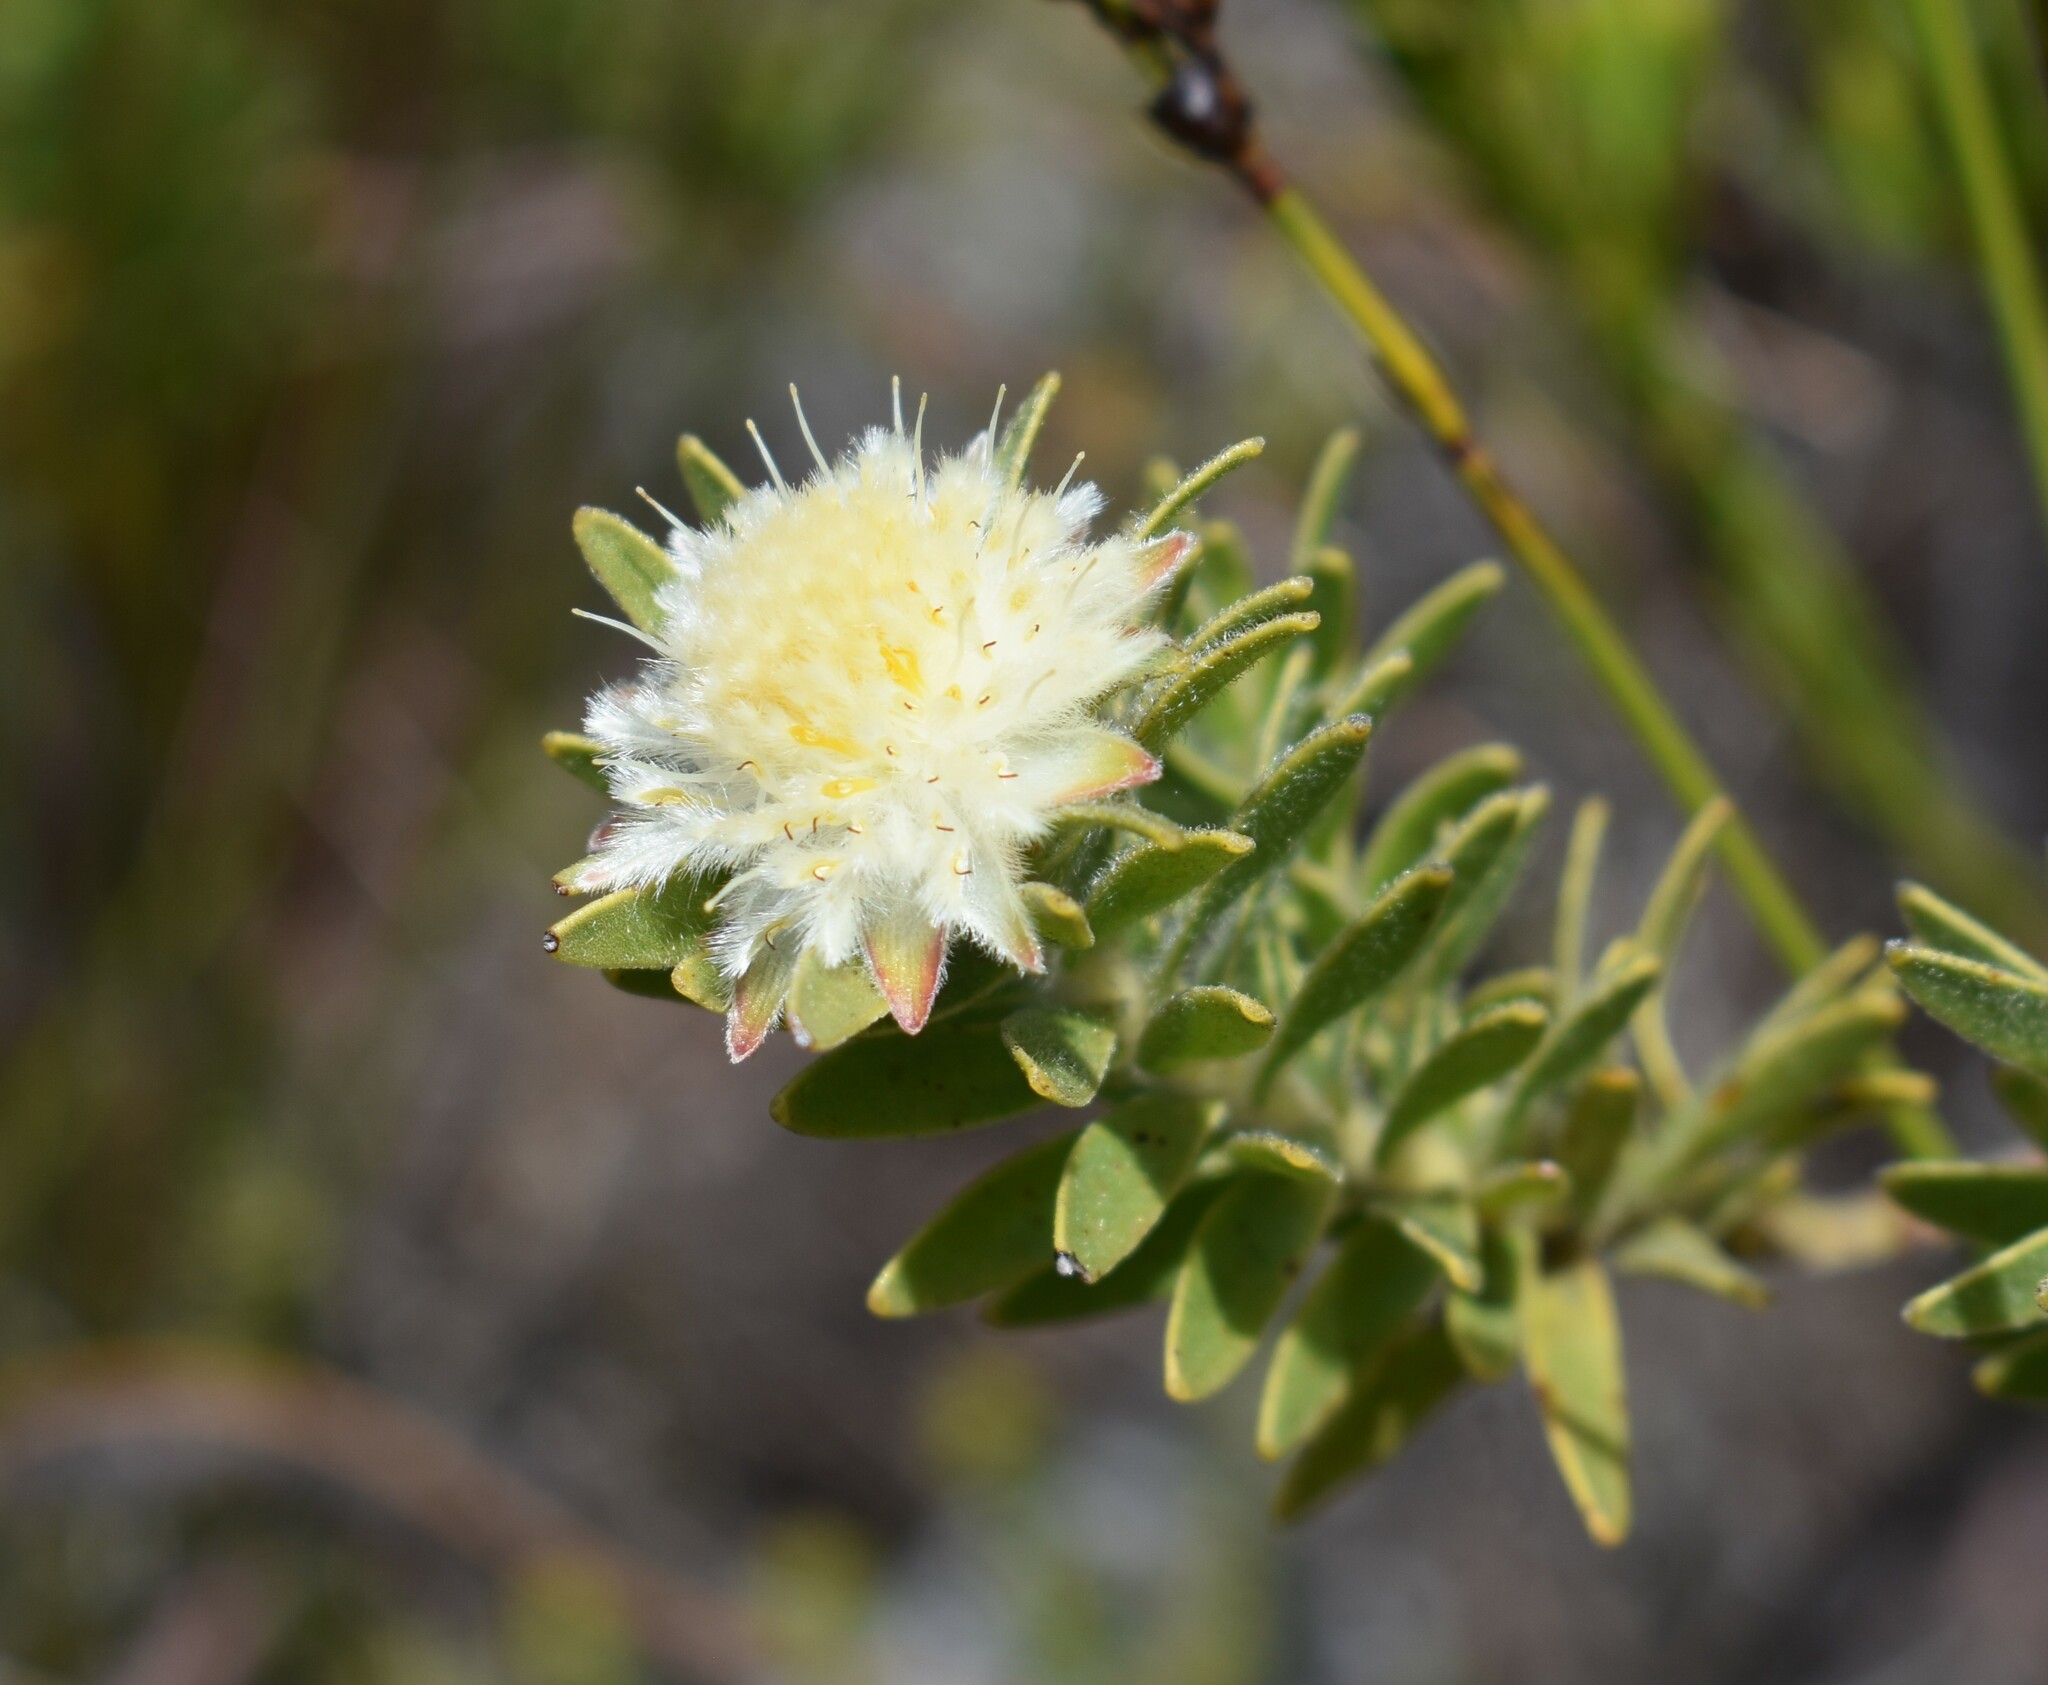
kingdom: Plantae
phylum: Tracheophyta
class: Magnoliopsida
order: Proteales
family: Proteaceae
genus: Diastella
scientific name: Diastella fraterna
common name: Palmiet silkypuff
